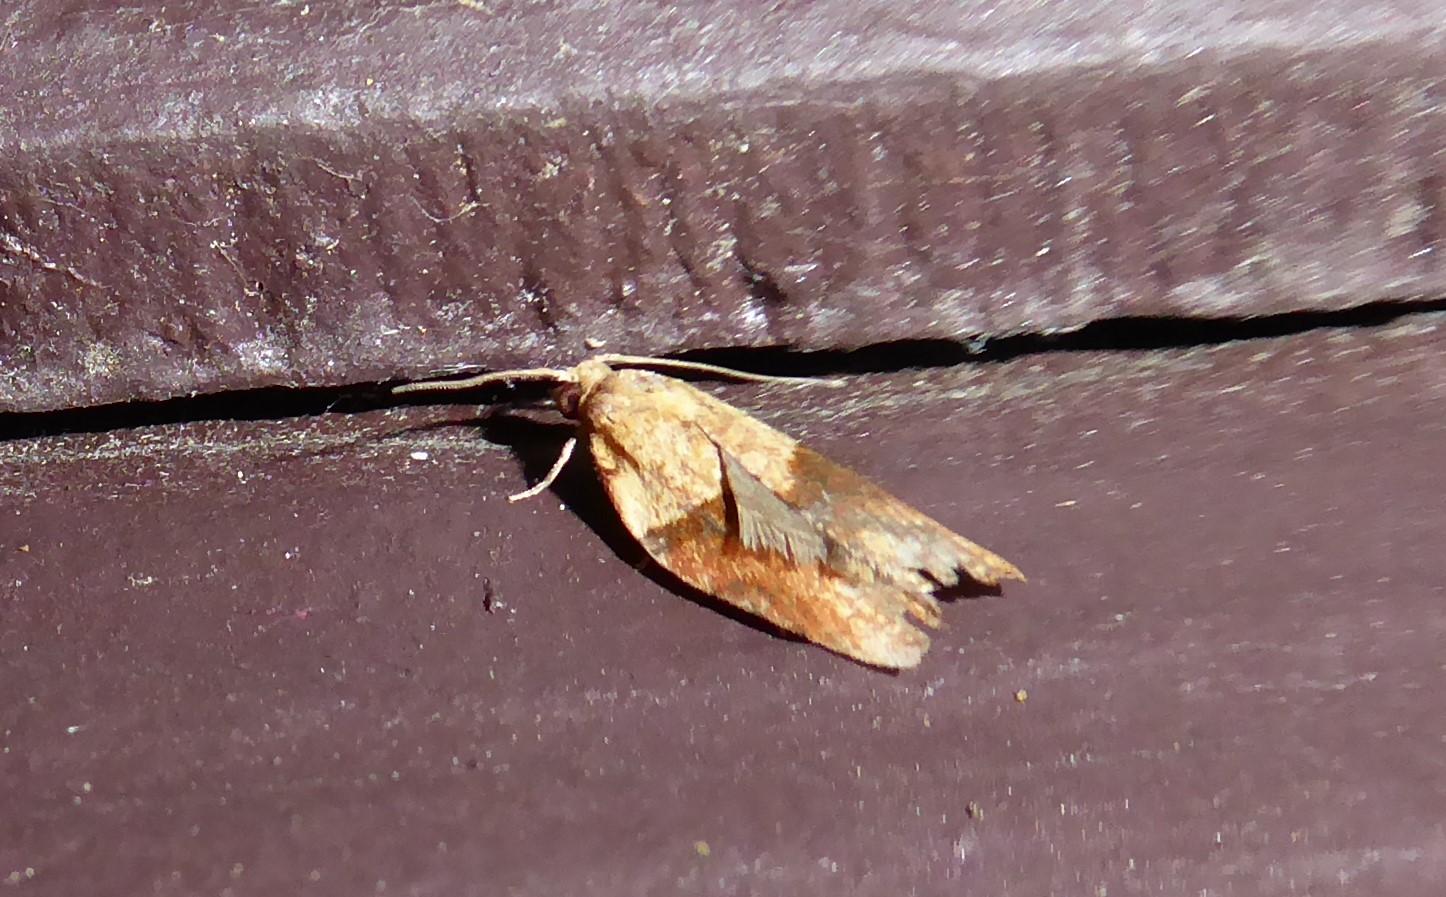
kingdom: Animalia
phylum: Arthropoda
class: Insecta
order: Lepidoptera
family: Tortricidae
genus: Epiphyas
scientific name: Epiphyas postvittana
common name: Light brown apple moth
